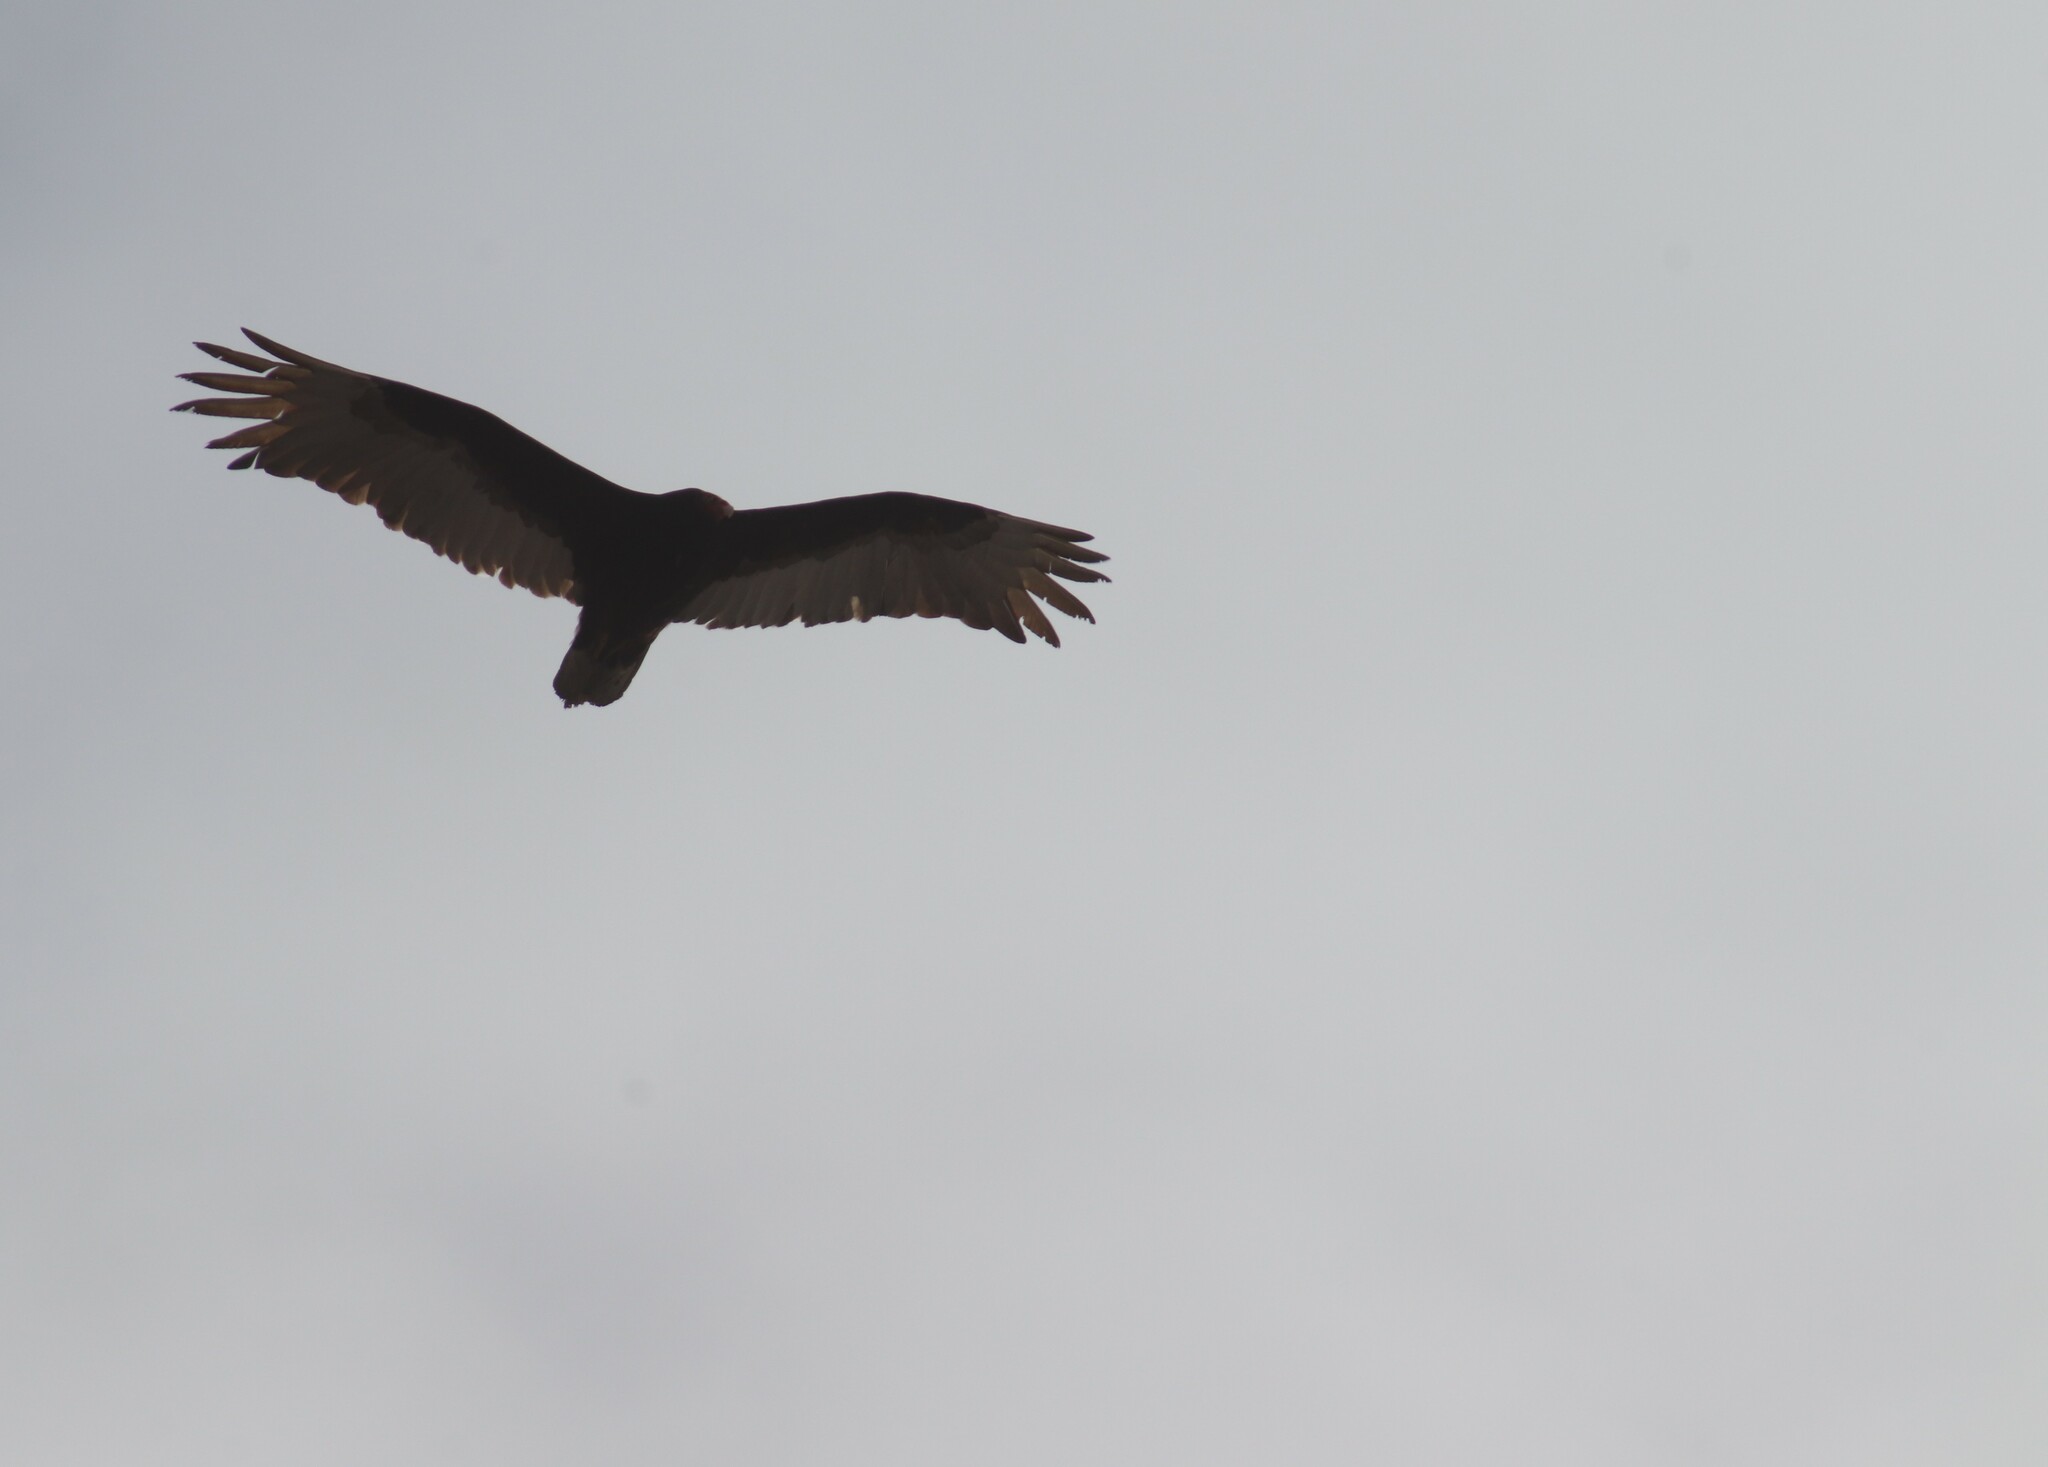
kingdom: Animalia
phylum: Chordata
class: Aves
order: Accipitriformes
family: Cathartidae
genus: Cathartes
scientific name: Cathartes aura
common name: Turkey vulture
